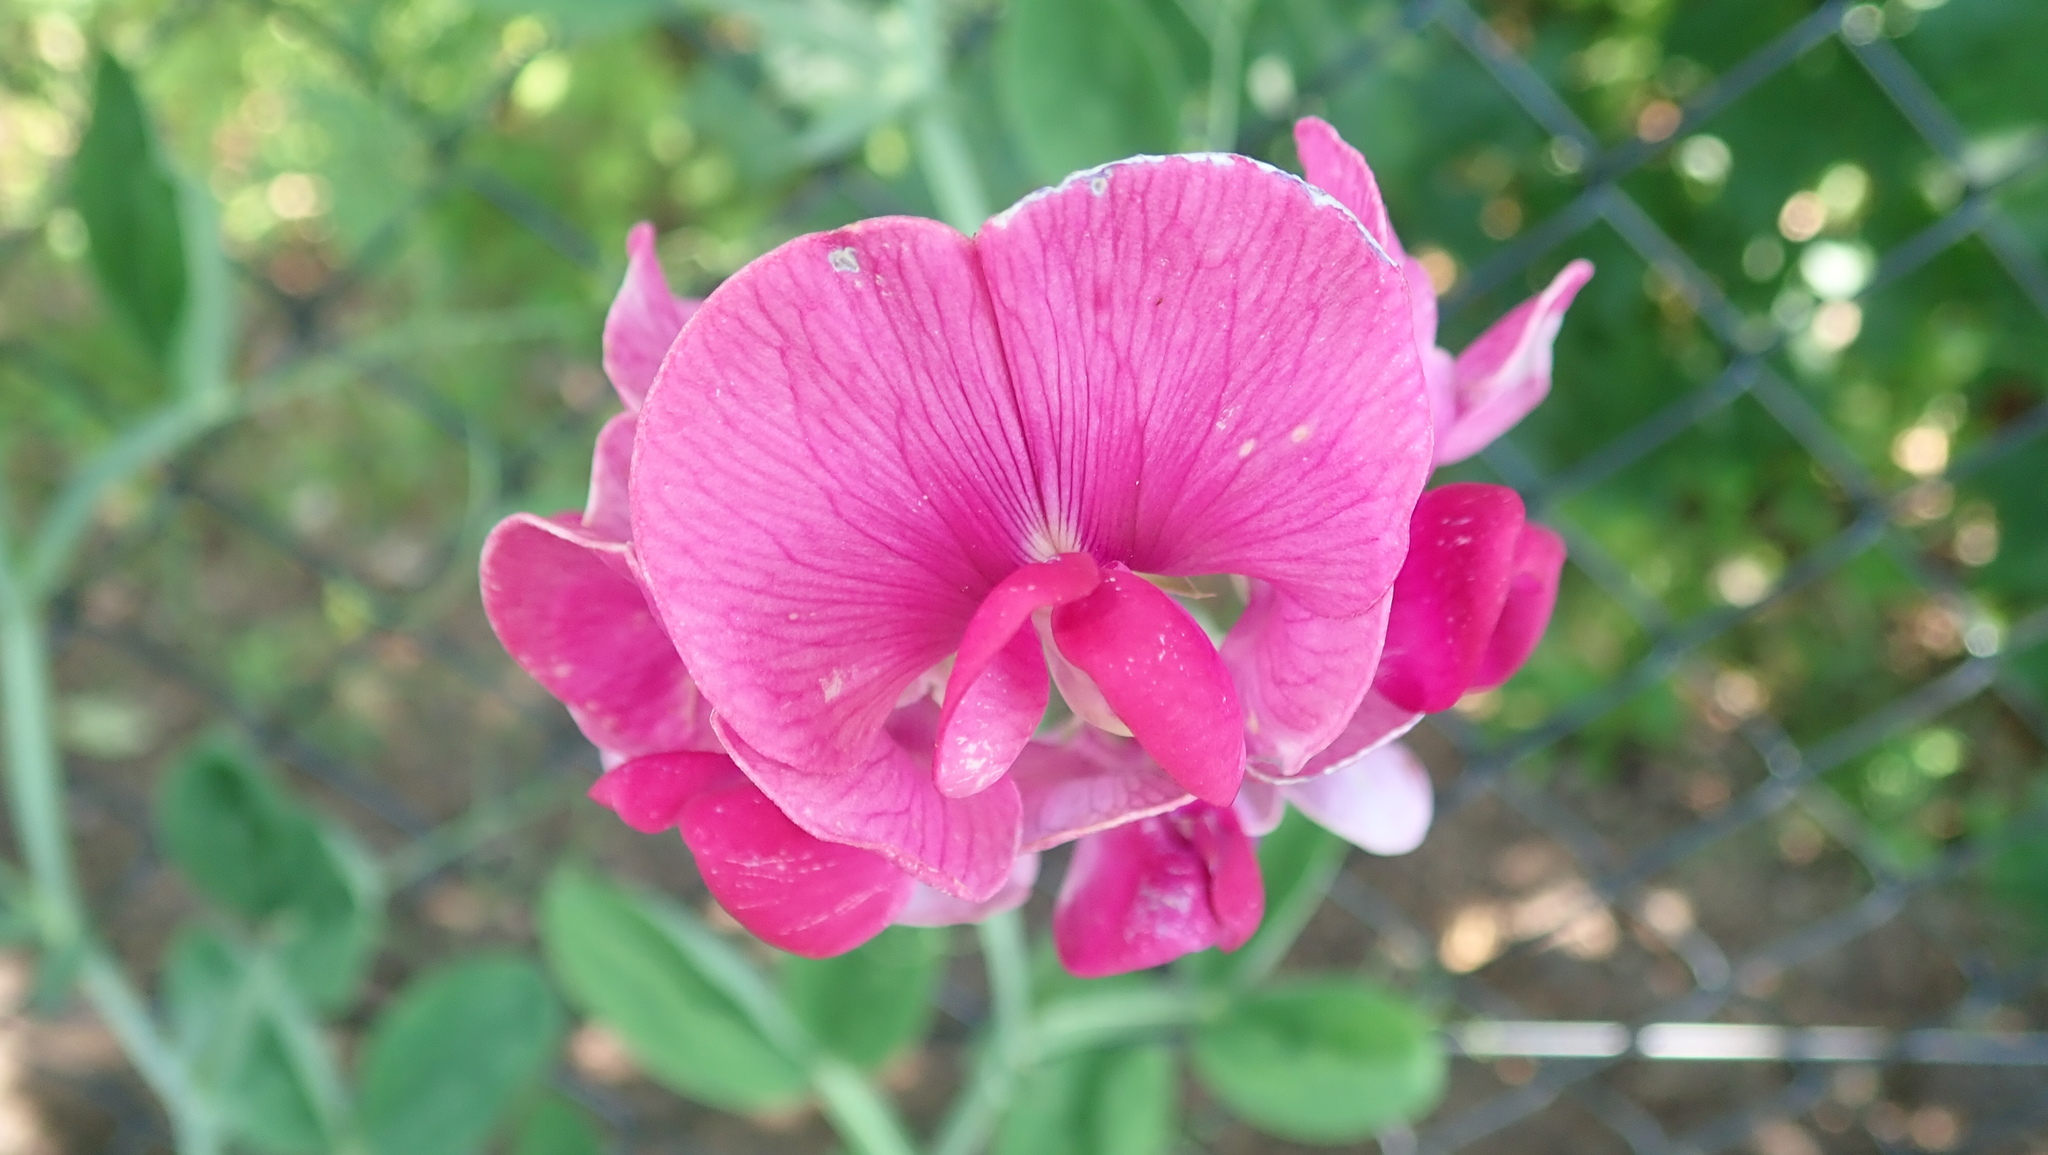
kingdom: Plantae
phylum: Tracheophyta
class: Magnoliopsida
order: Fabales
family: Fabaceae
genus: Lathyrus
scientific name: Lathyrus latifolius
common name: Perennial pea
